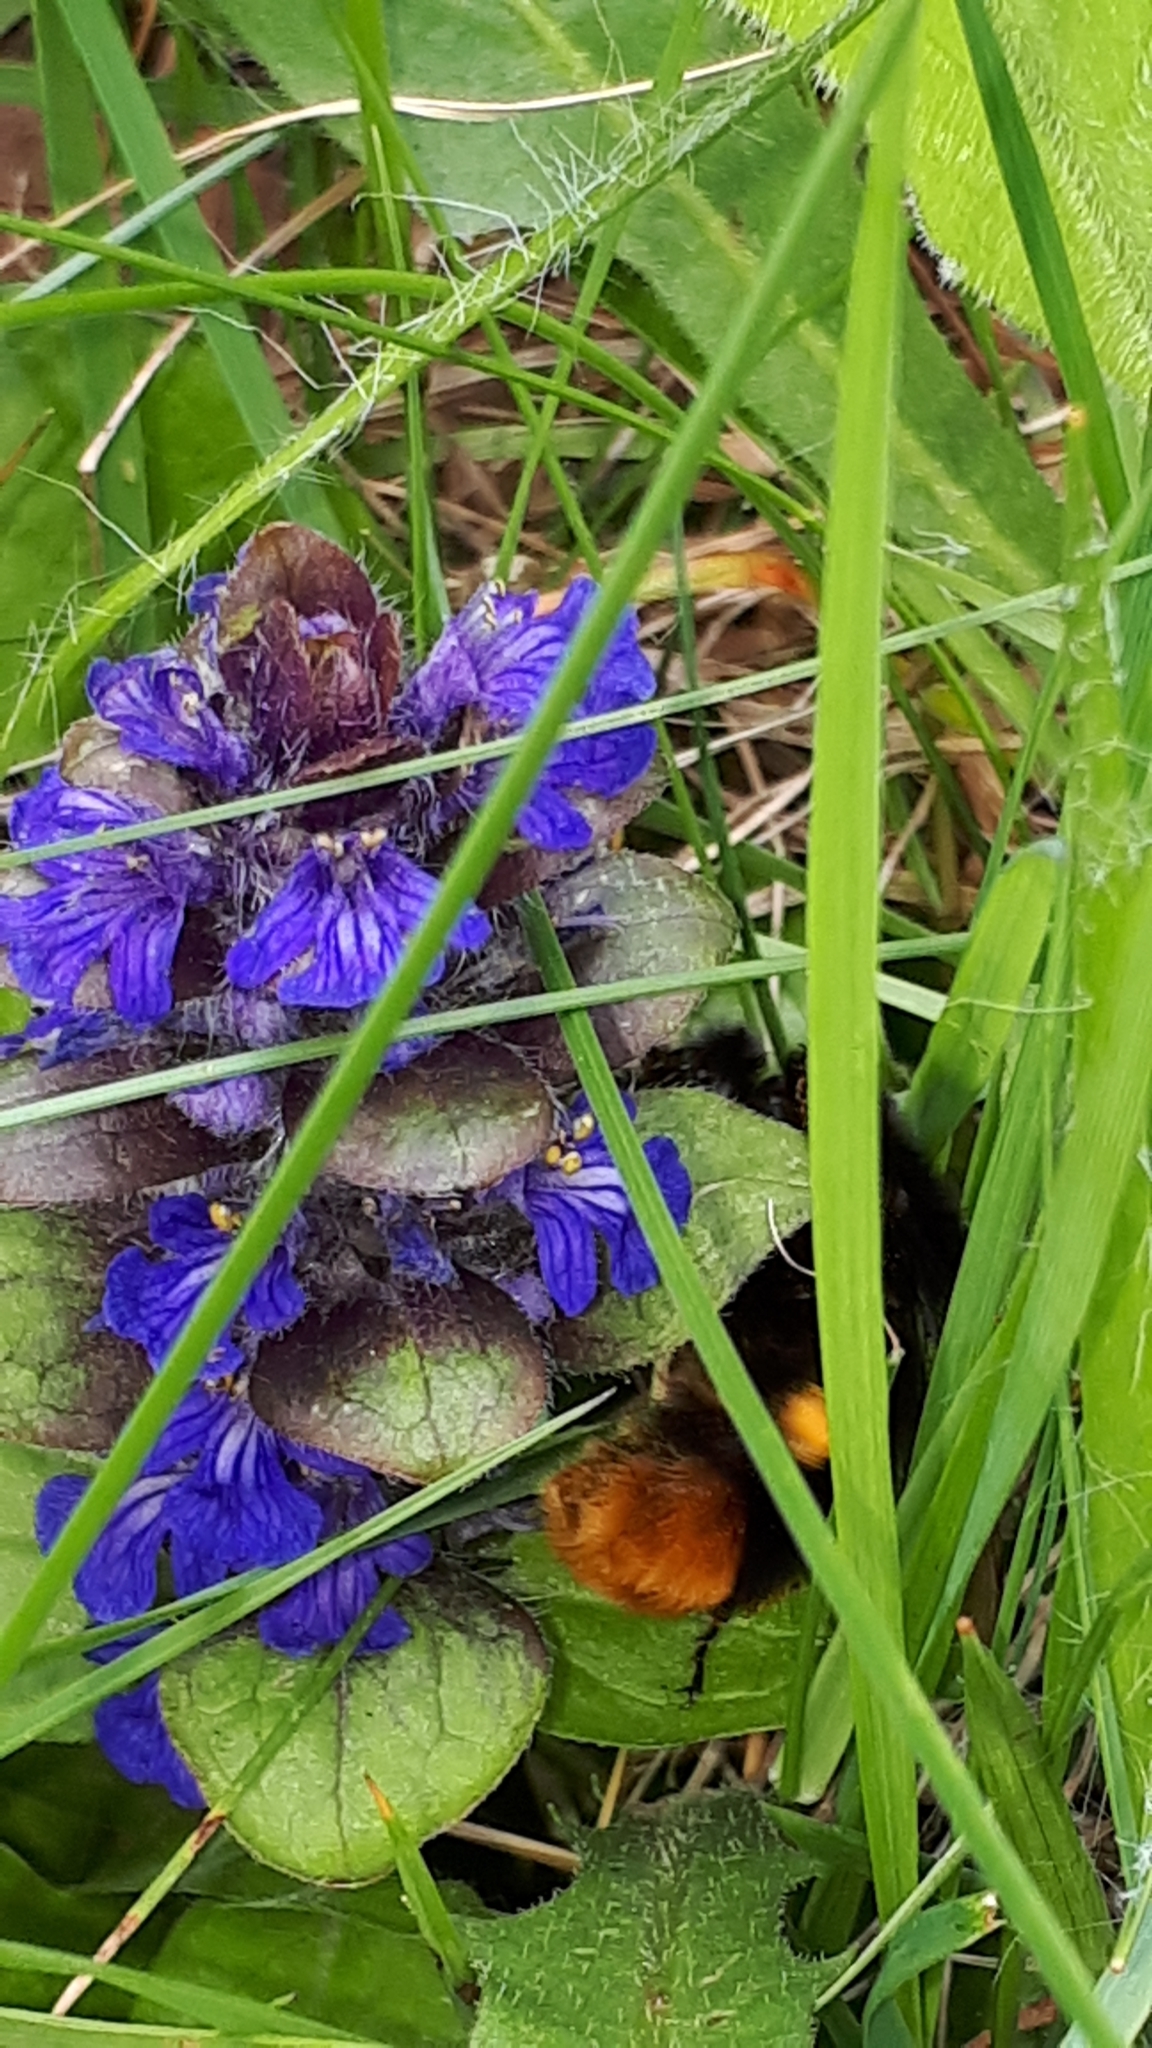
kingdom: Animalia
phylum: Arthropoda
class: Insecta
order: Hymenoptera
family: Apidae
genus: Bombus
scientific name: Bombus lapidarius
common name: Large red-tailed humble-bee
